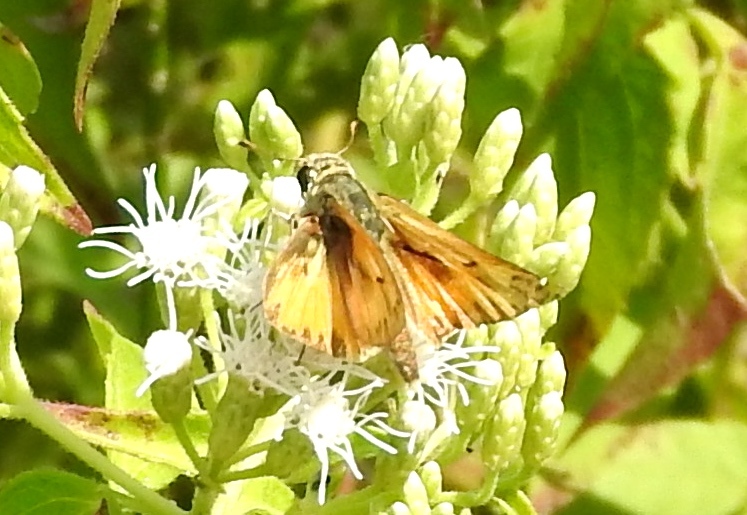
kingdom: Animalia
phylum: Arthropoda
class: Insecta
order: Lepidoptera
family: Hesperiidae
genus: Hylephila
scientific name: Hylephila phyleus
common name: Fiery skipper
